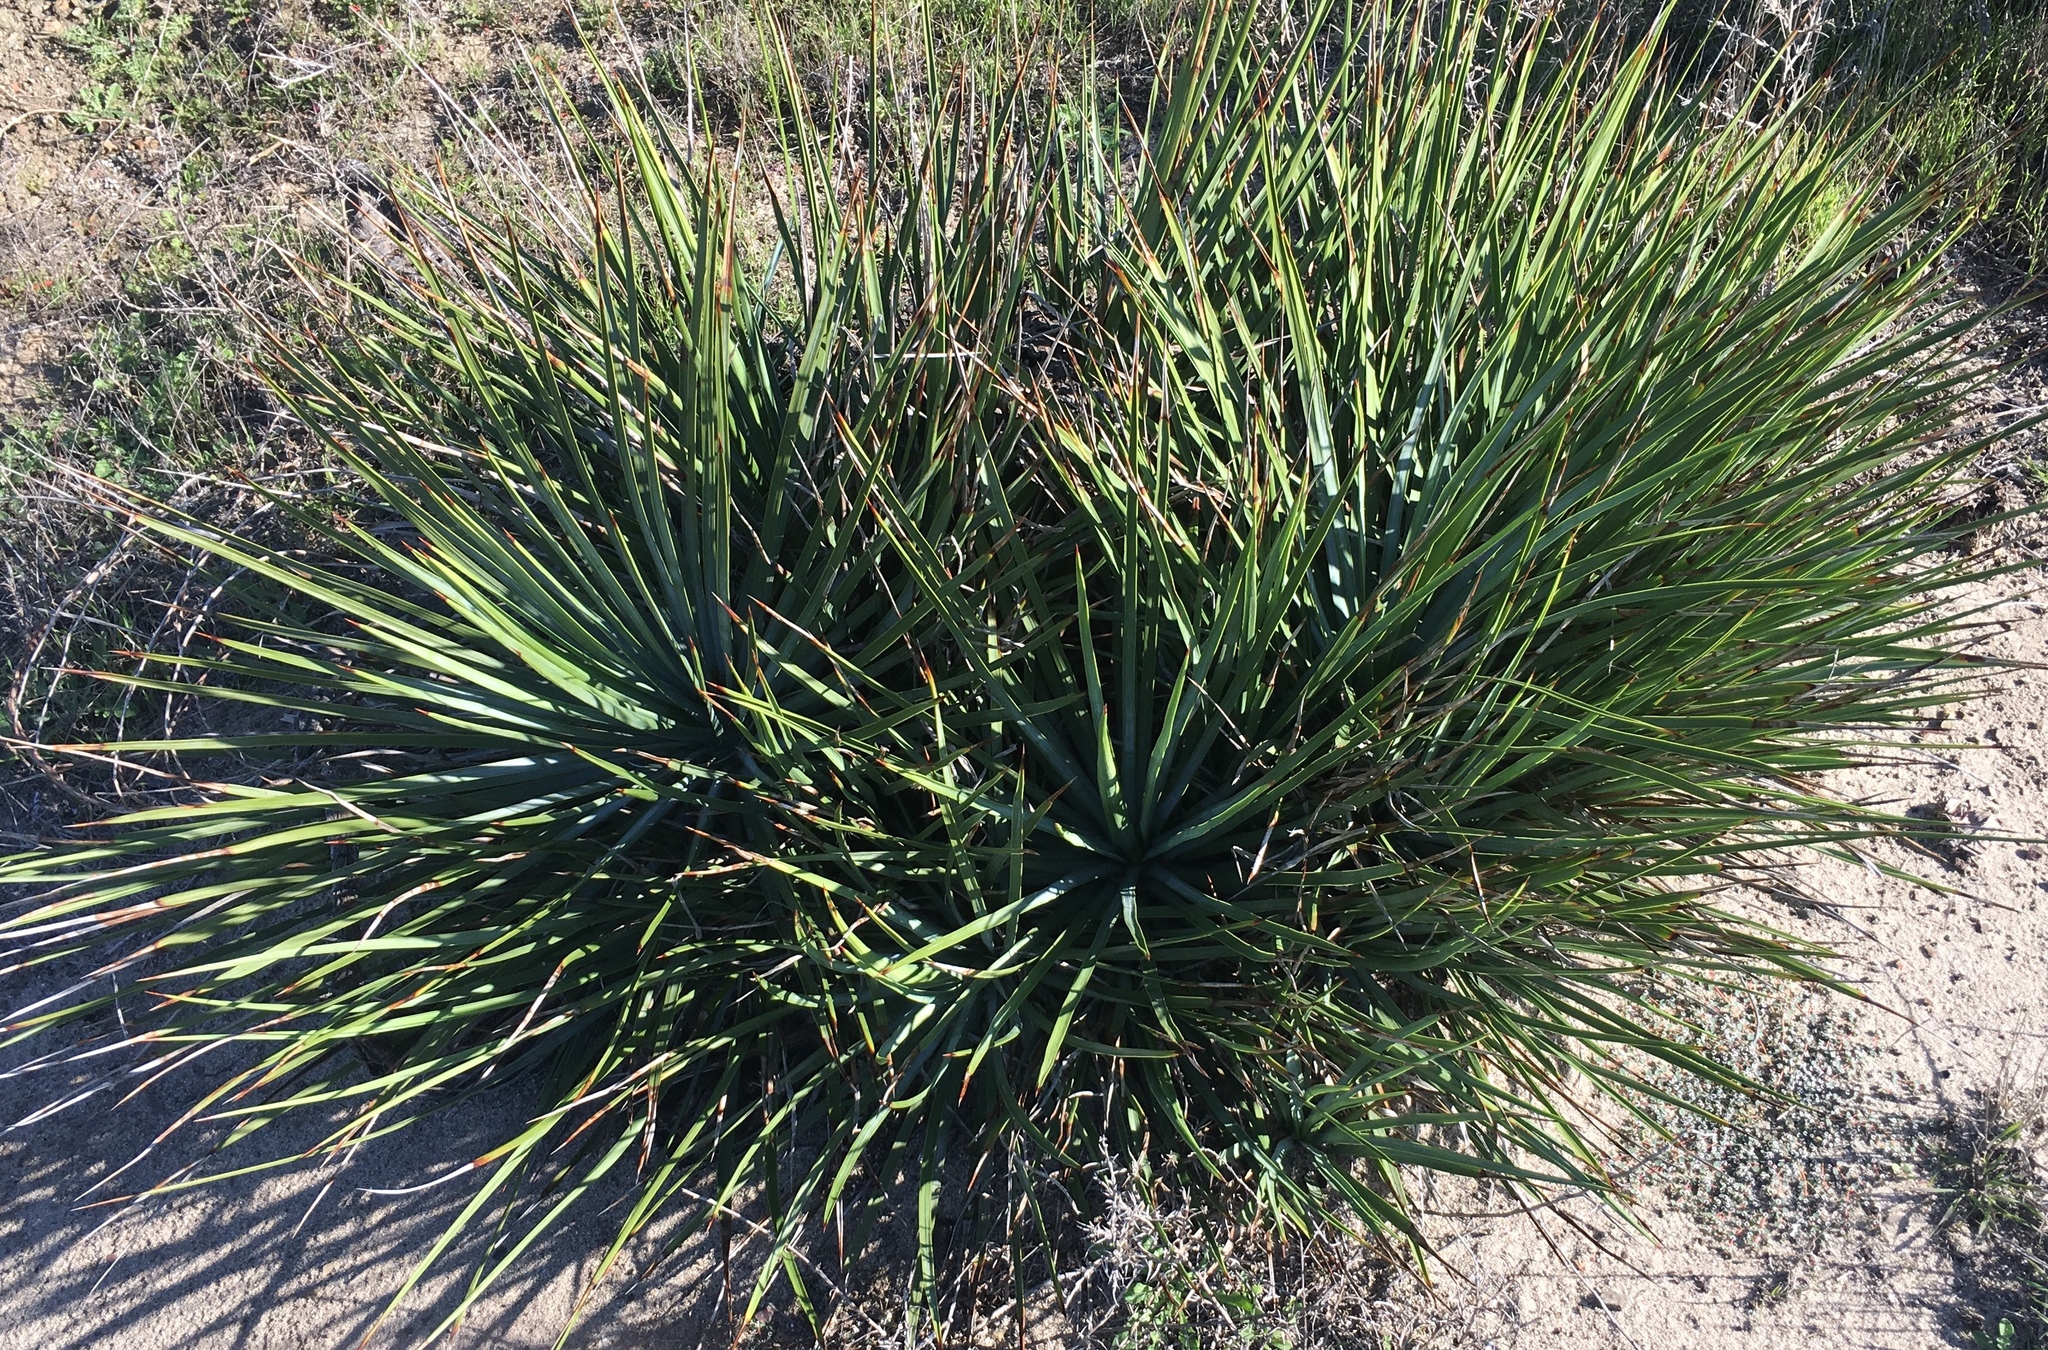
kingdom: Plantae
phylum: Tracheophyta
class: Liliopsida
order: Asparagales
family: Asparagaceae
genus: Hesperoyucca
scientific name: Hesperoyucca whipplei
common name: Our lord's-candle
